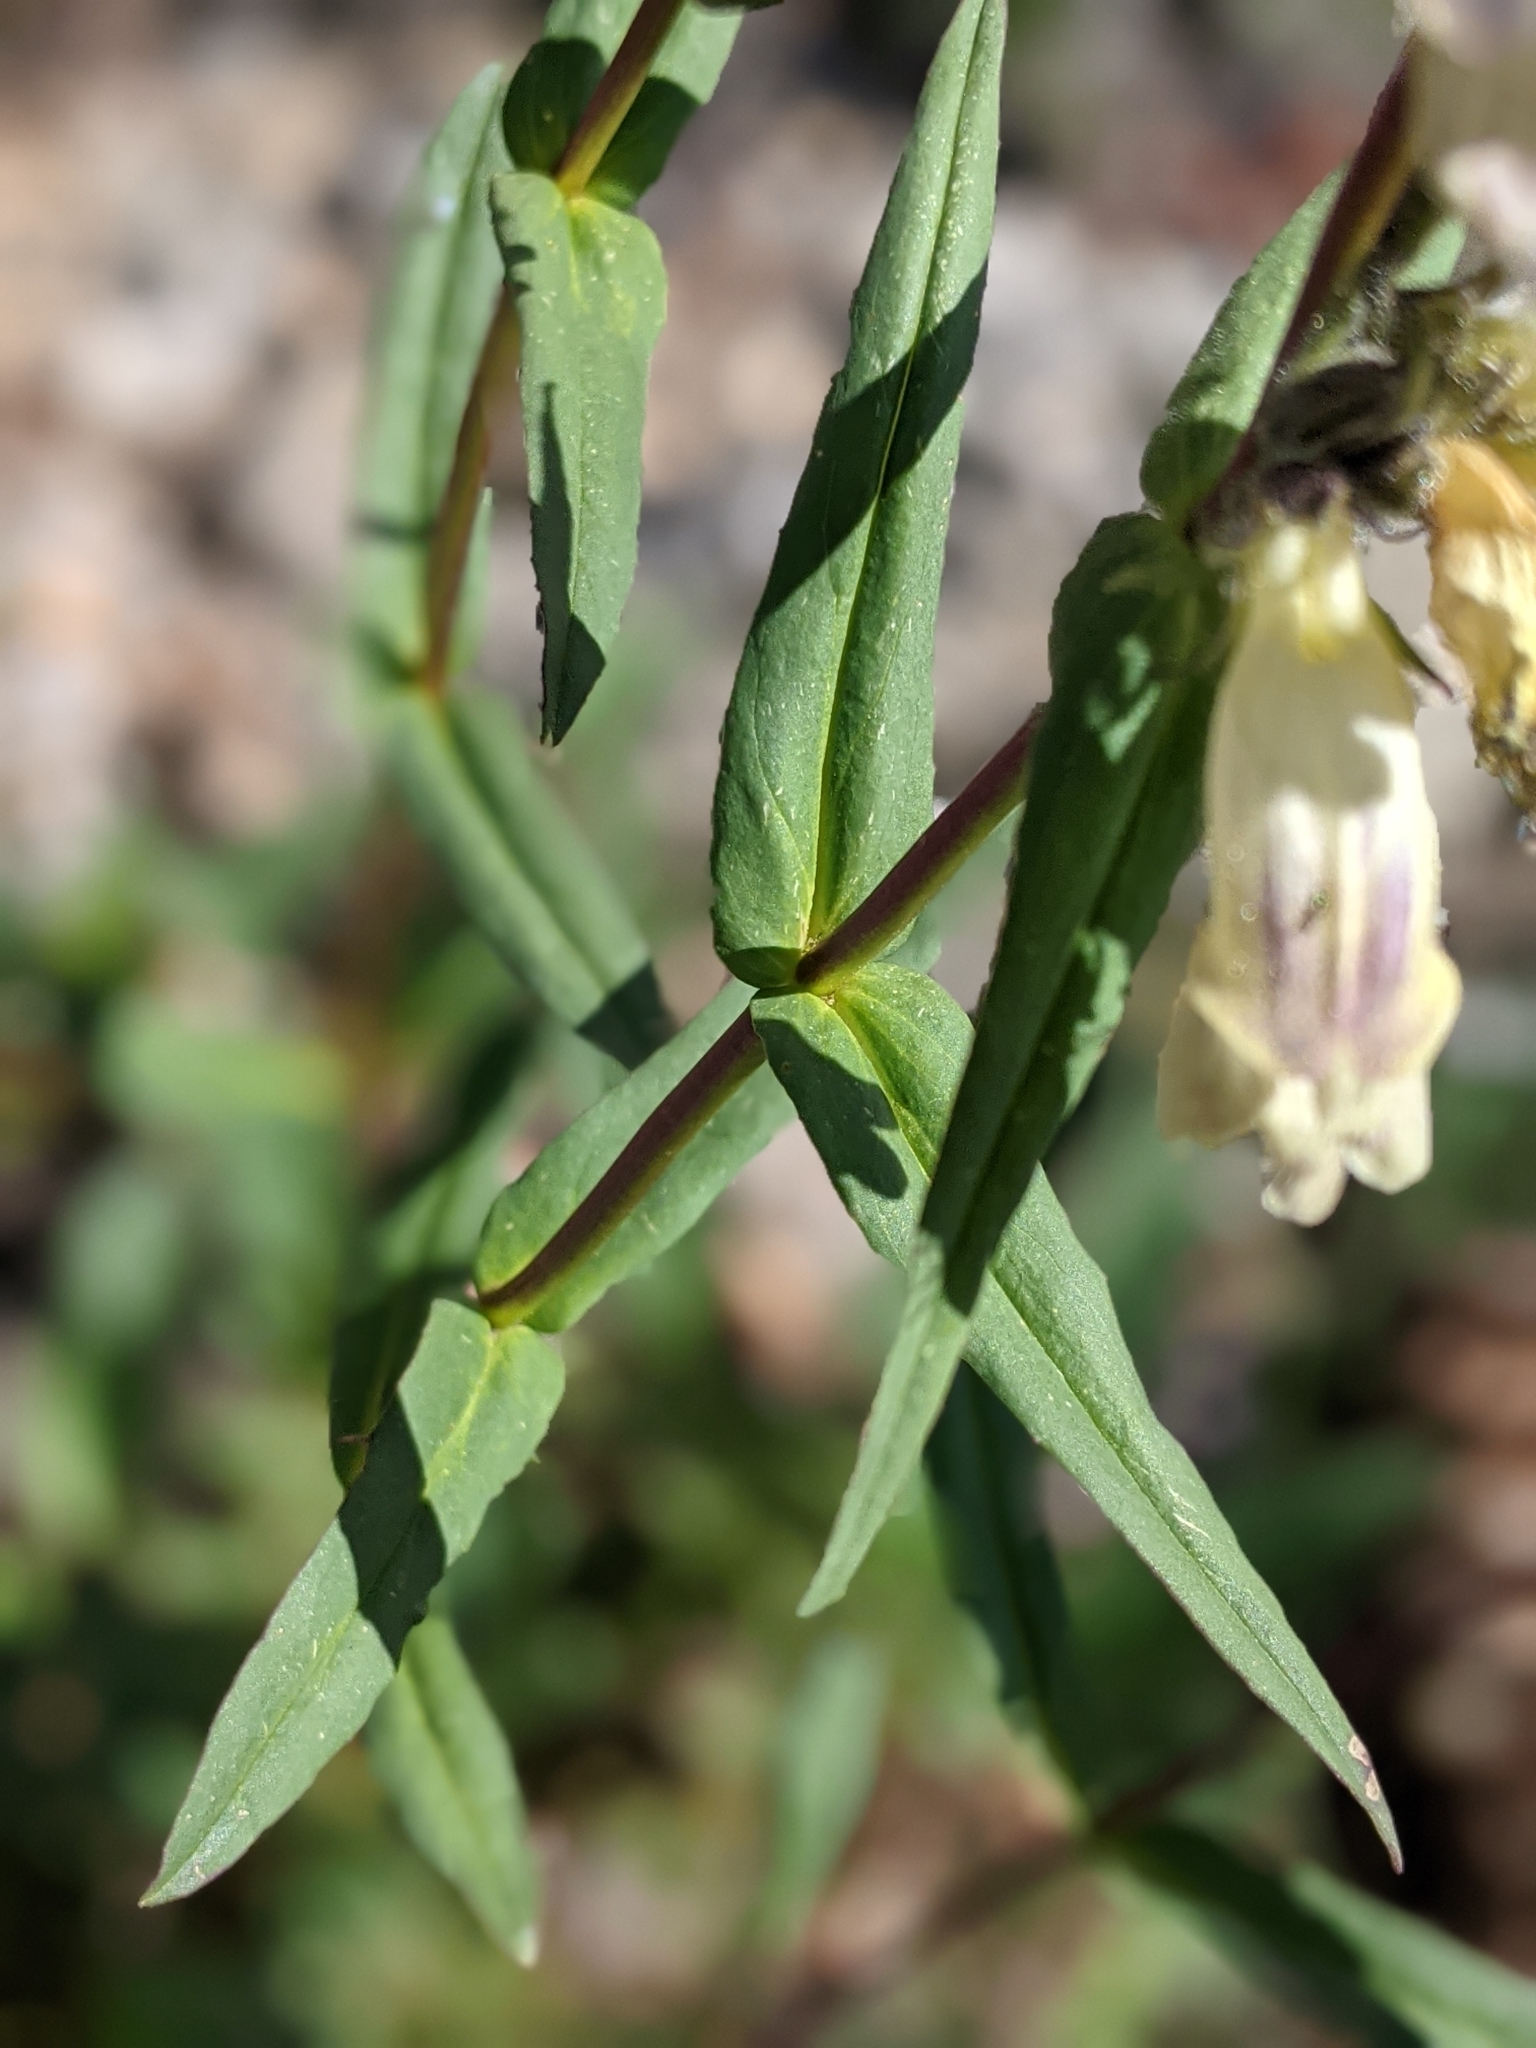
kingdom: Plantae
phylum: Tracheophyta
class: Magnoliopsida
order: Lamiales
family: Plantaginaceae
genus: Penstemon
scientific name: Penstemon whippleanus
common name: Whipple's penstemon
